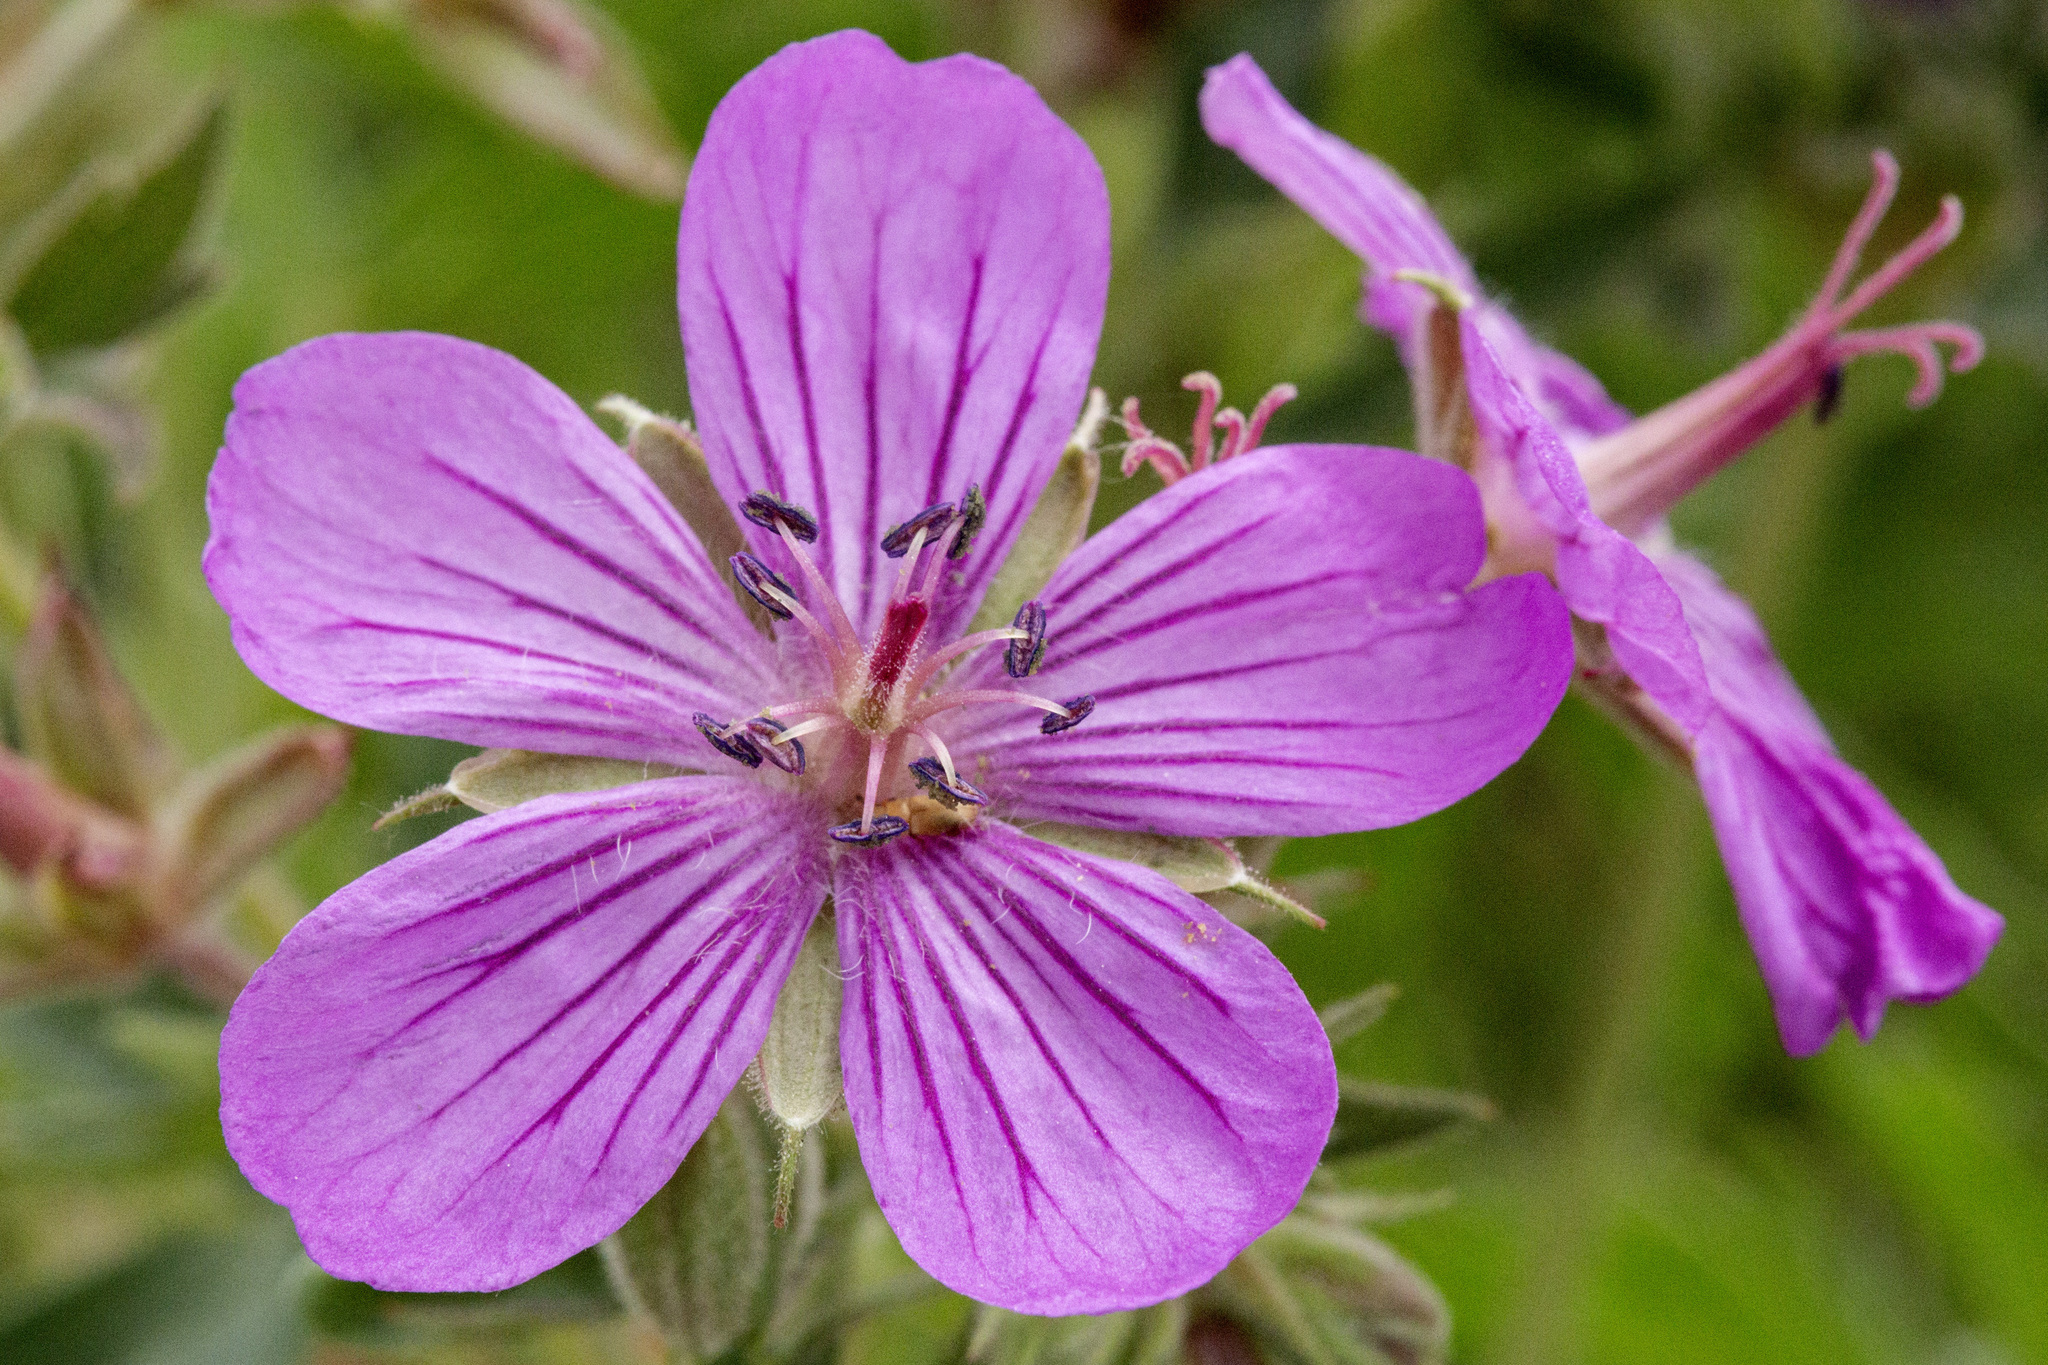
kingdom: Plantae
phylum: Tracheophyta
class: Magnoliopsida
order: Geraniales
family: Geraniaceae
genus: Geranium
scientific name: Geranium viscosissimum
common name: Purple geranium
